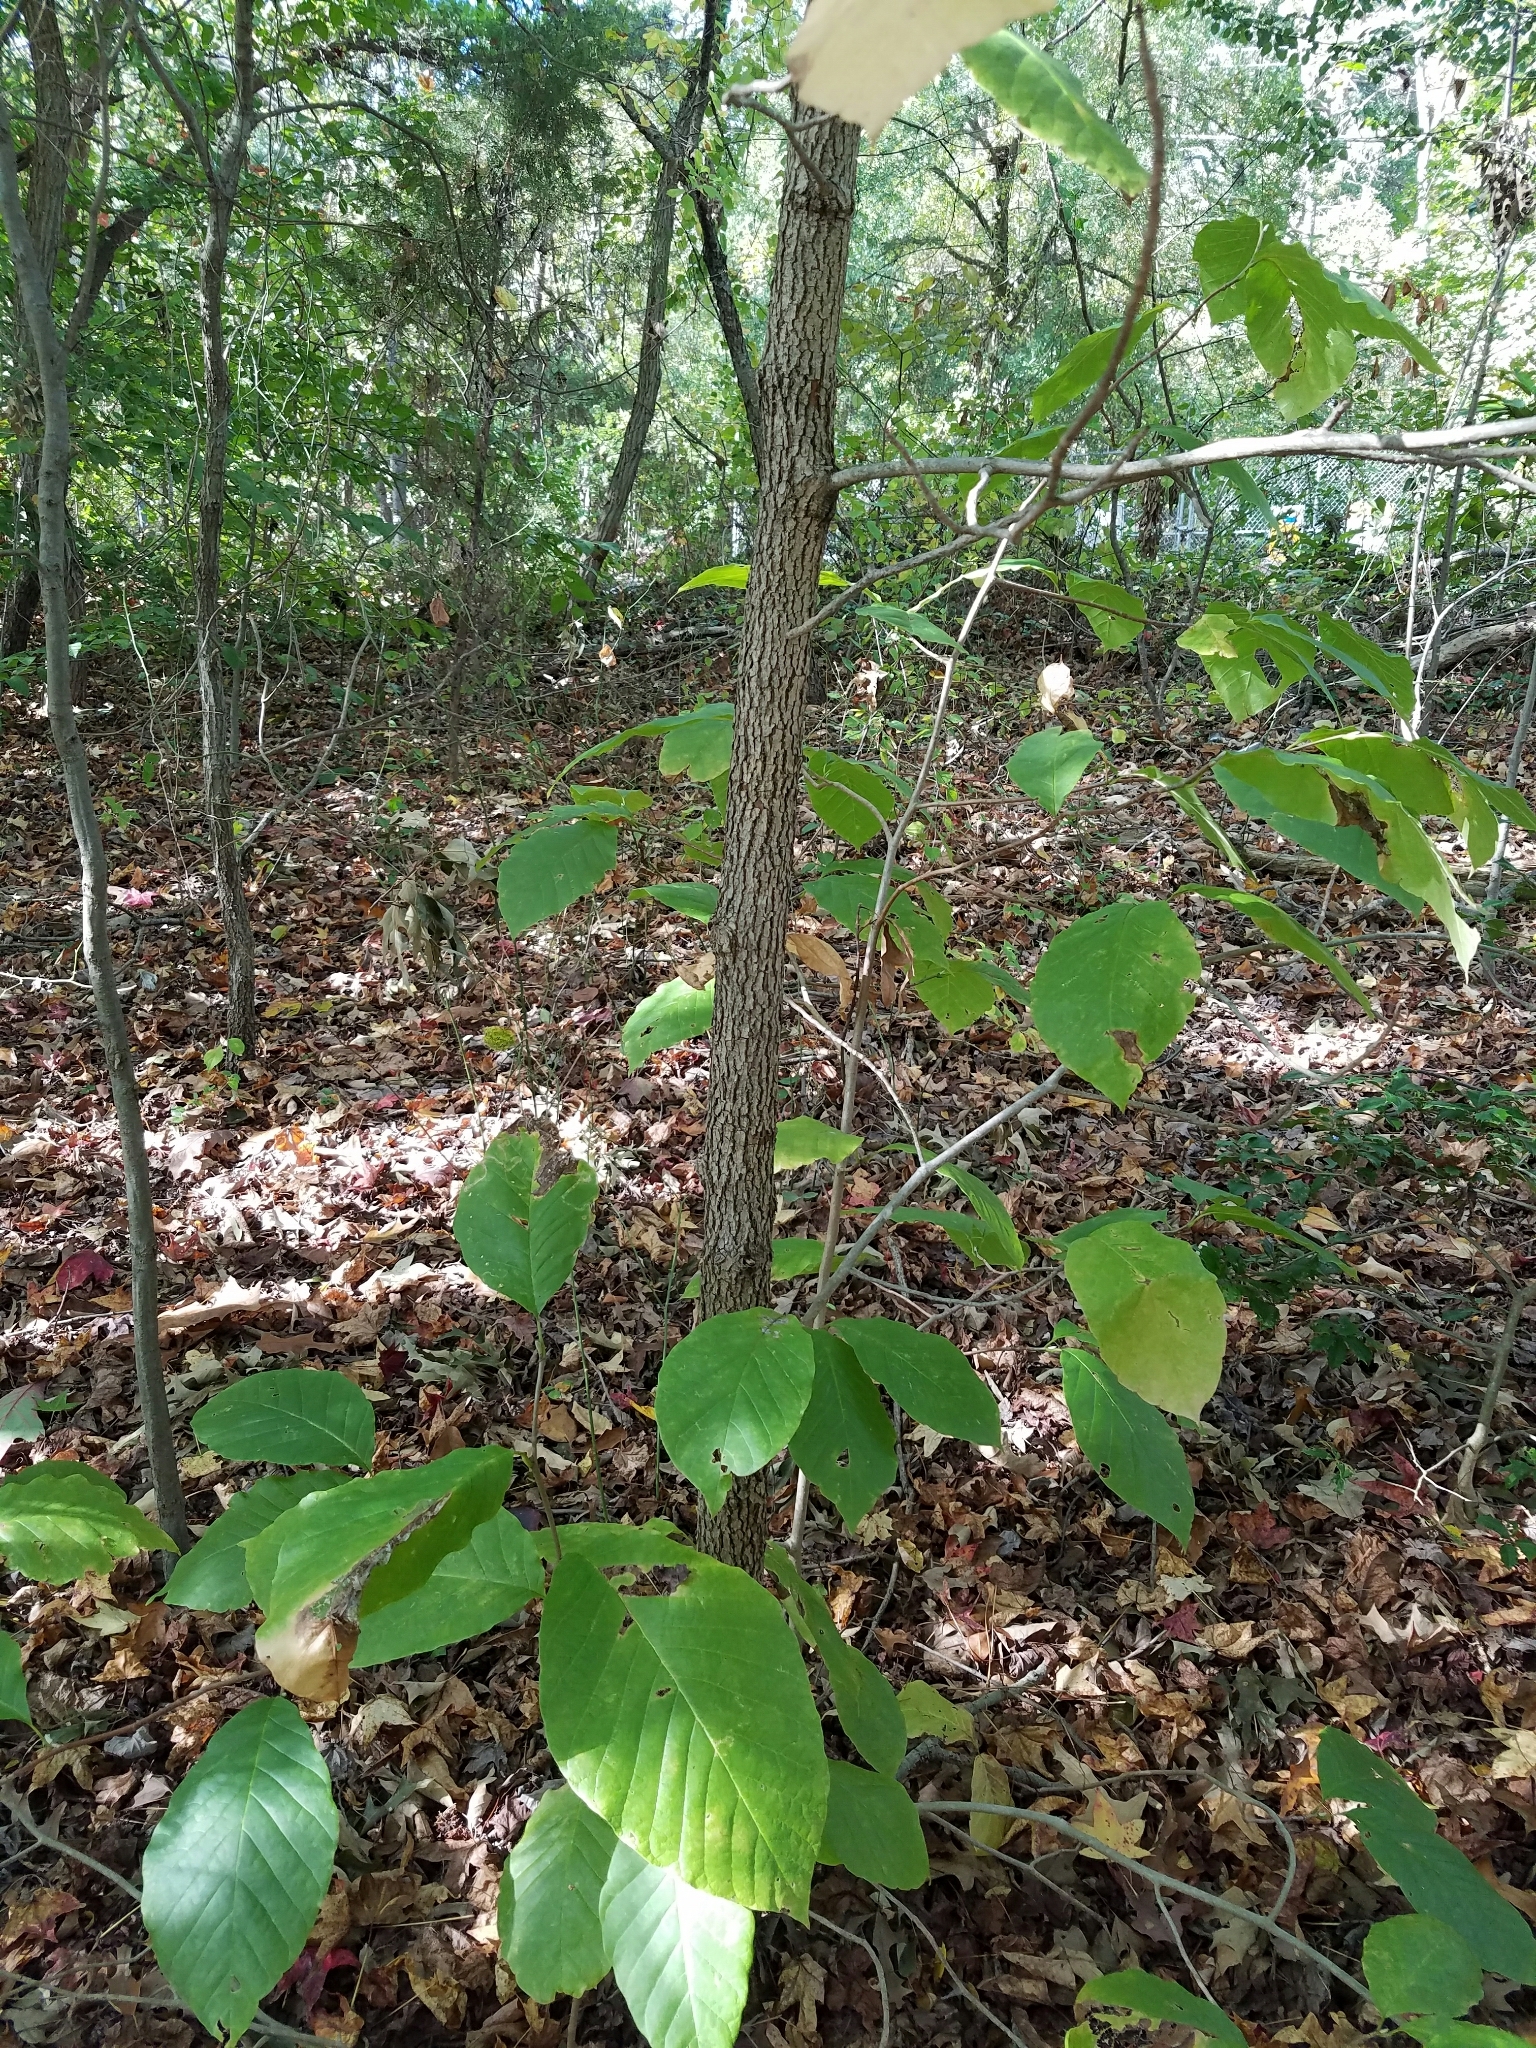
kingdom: Plantae
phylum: Tracheophyta
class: Magnoliopsida
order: Magnoliales
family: Magnoliaceae
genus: Magnolia
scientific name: Magnolia acuminata
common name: Cucumber magnolia
